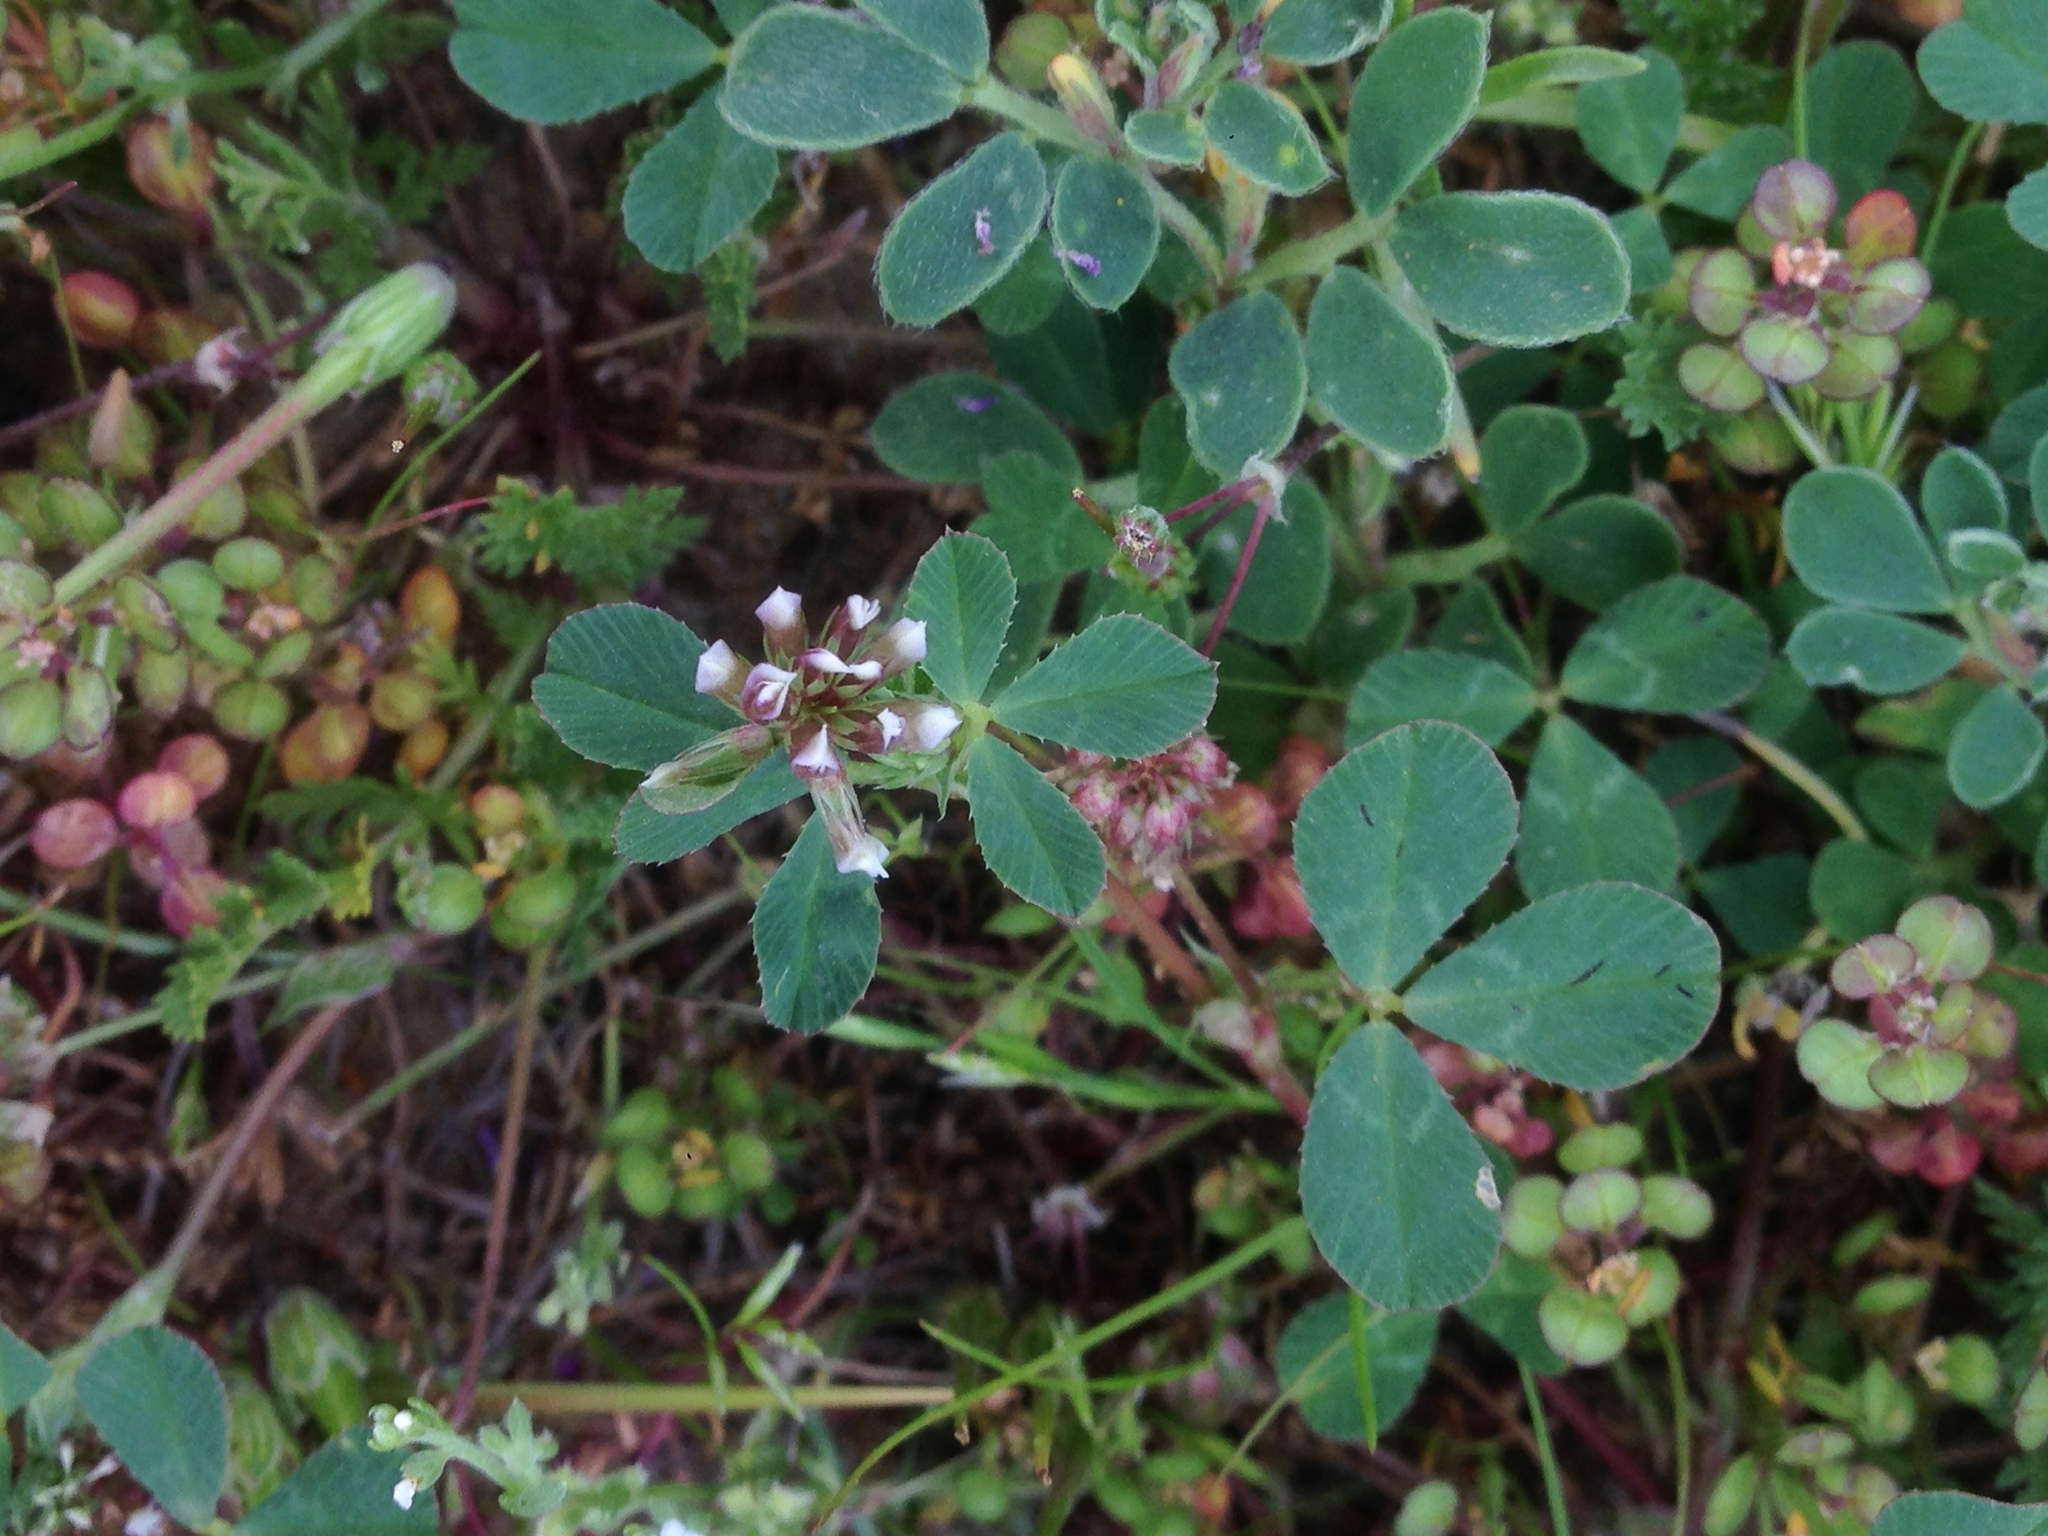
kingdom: Plantae
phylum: Tracheophyta
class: Magnoliopsida
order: Fabales
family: Fabaceae
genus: Trifolium
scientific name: Trifolium gracilentum
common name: Slender clover
